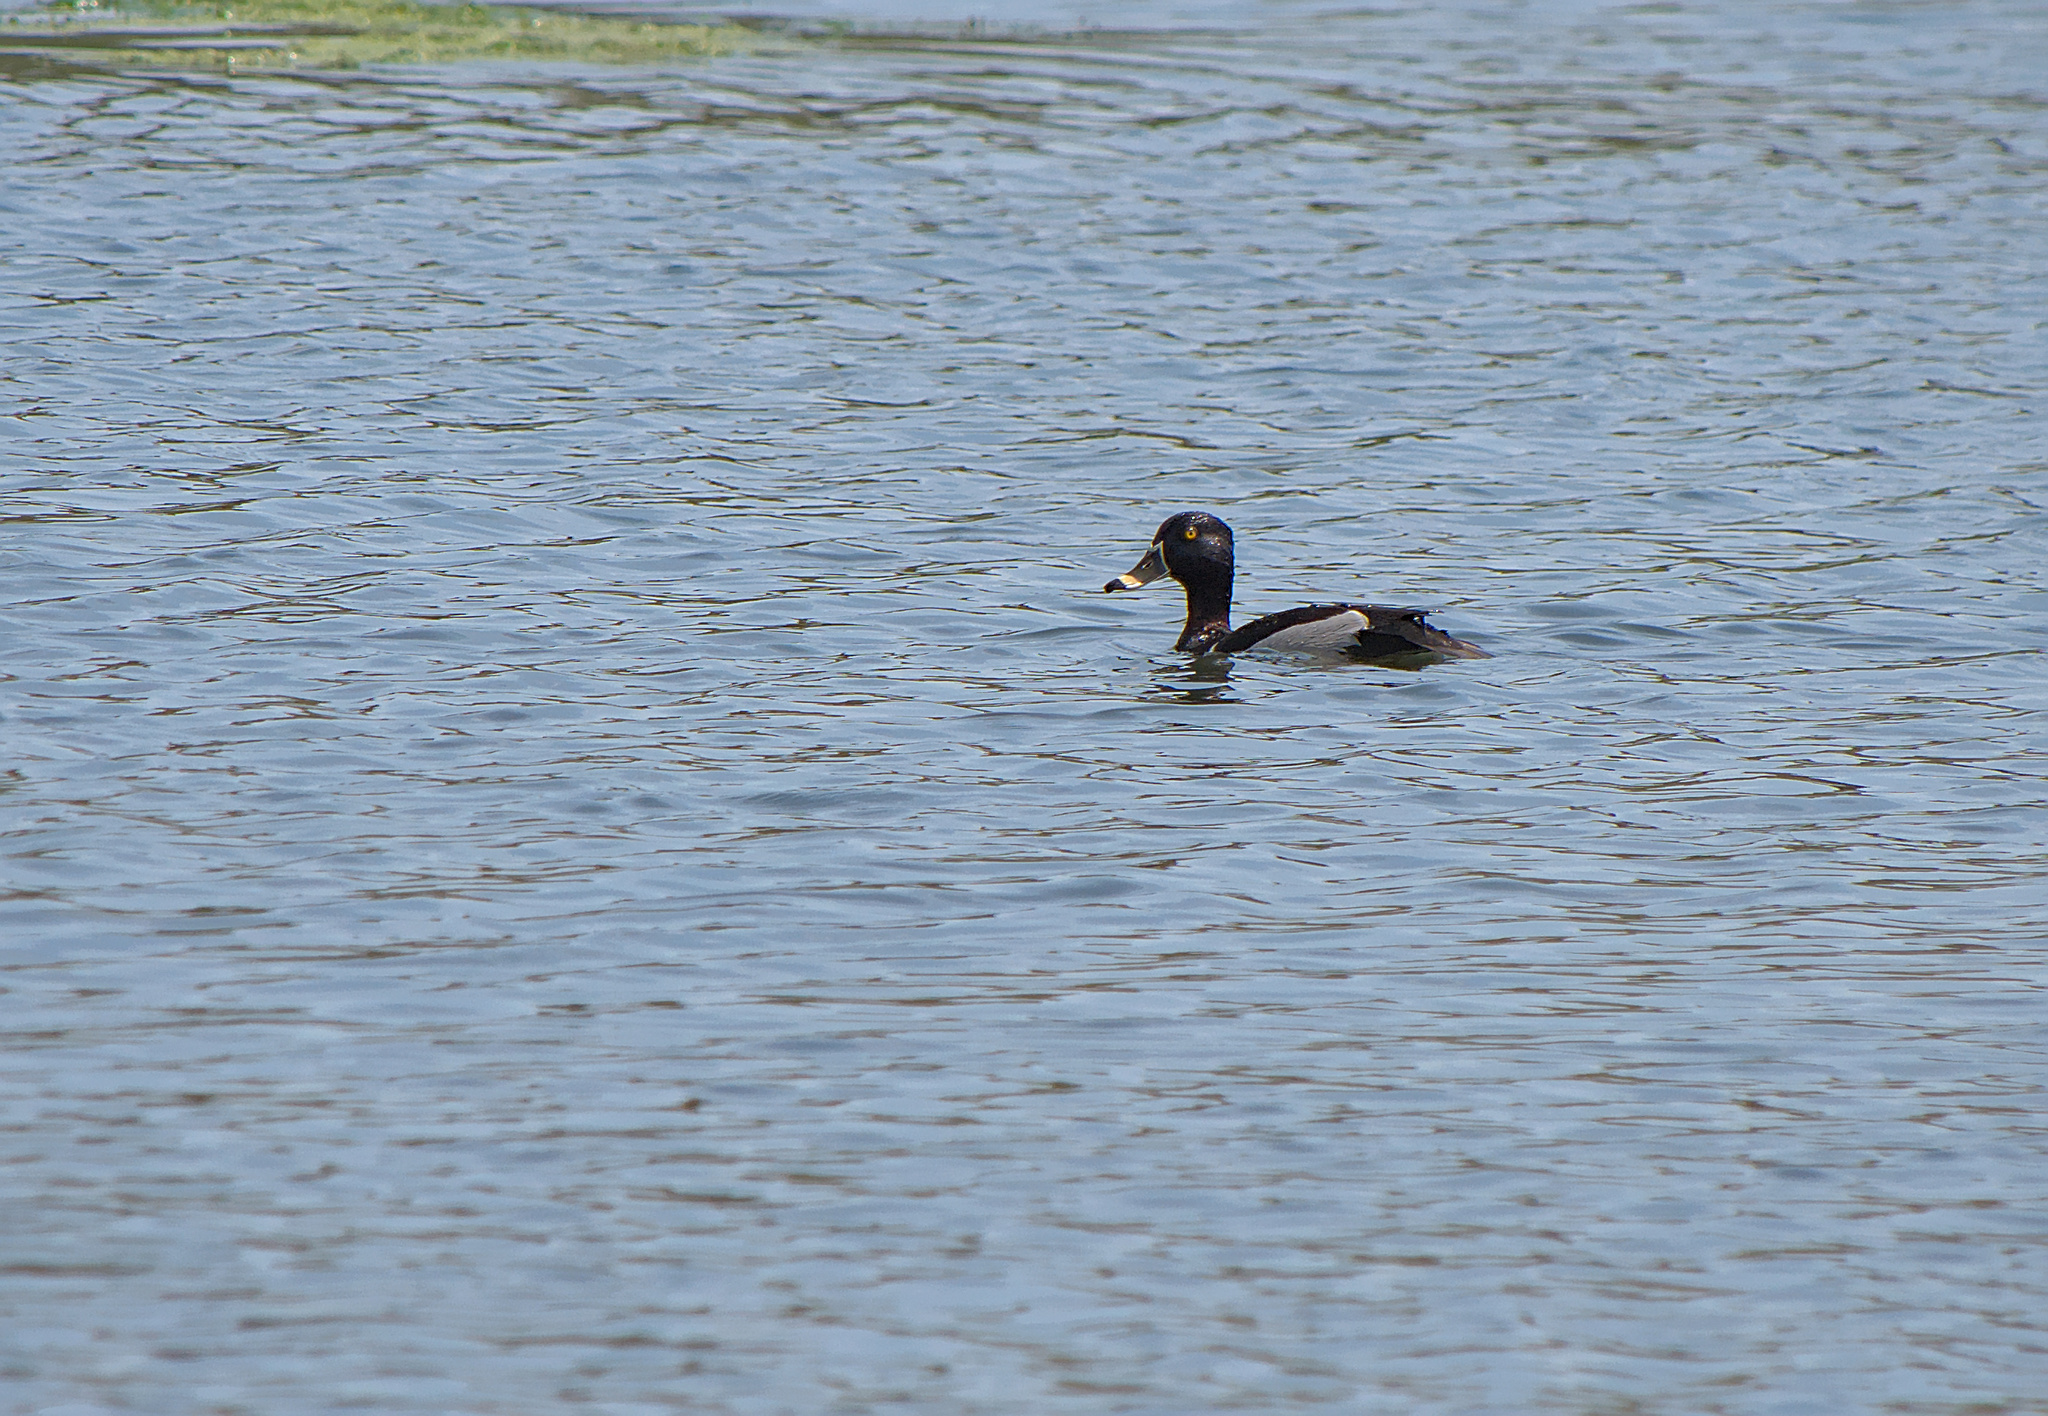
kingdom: Animalia
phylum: Chordata
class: Aves
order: Anseriformes
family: Anatidae
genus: Aythya
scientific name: Aythya collaris
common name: Ring-necked duck
